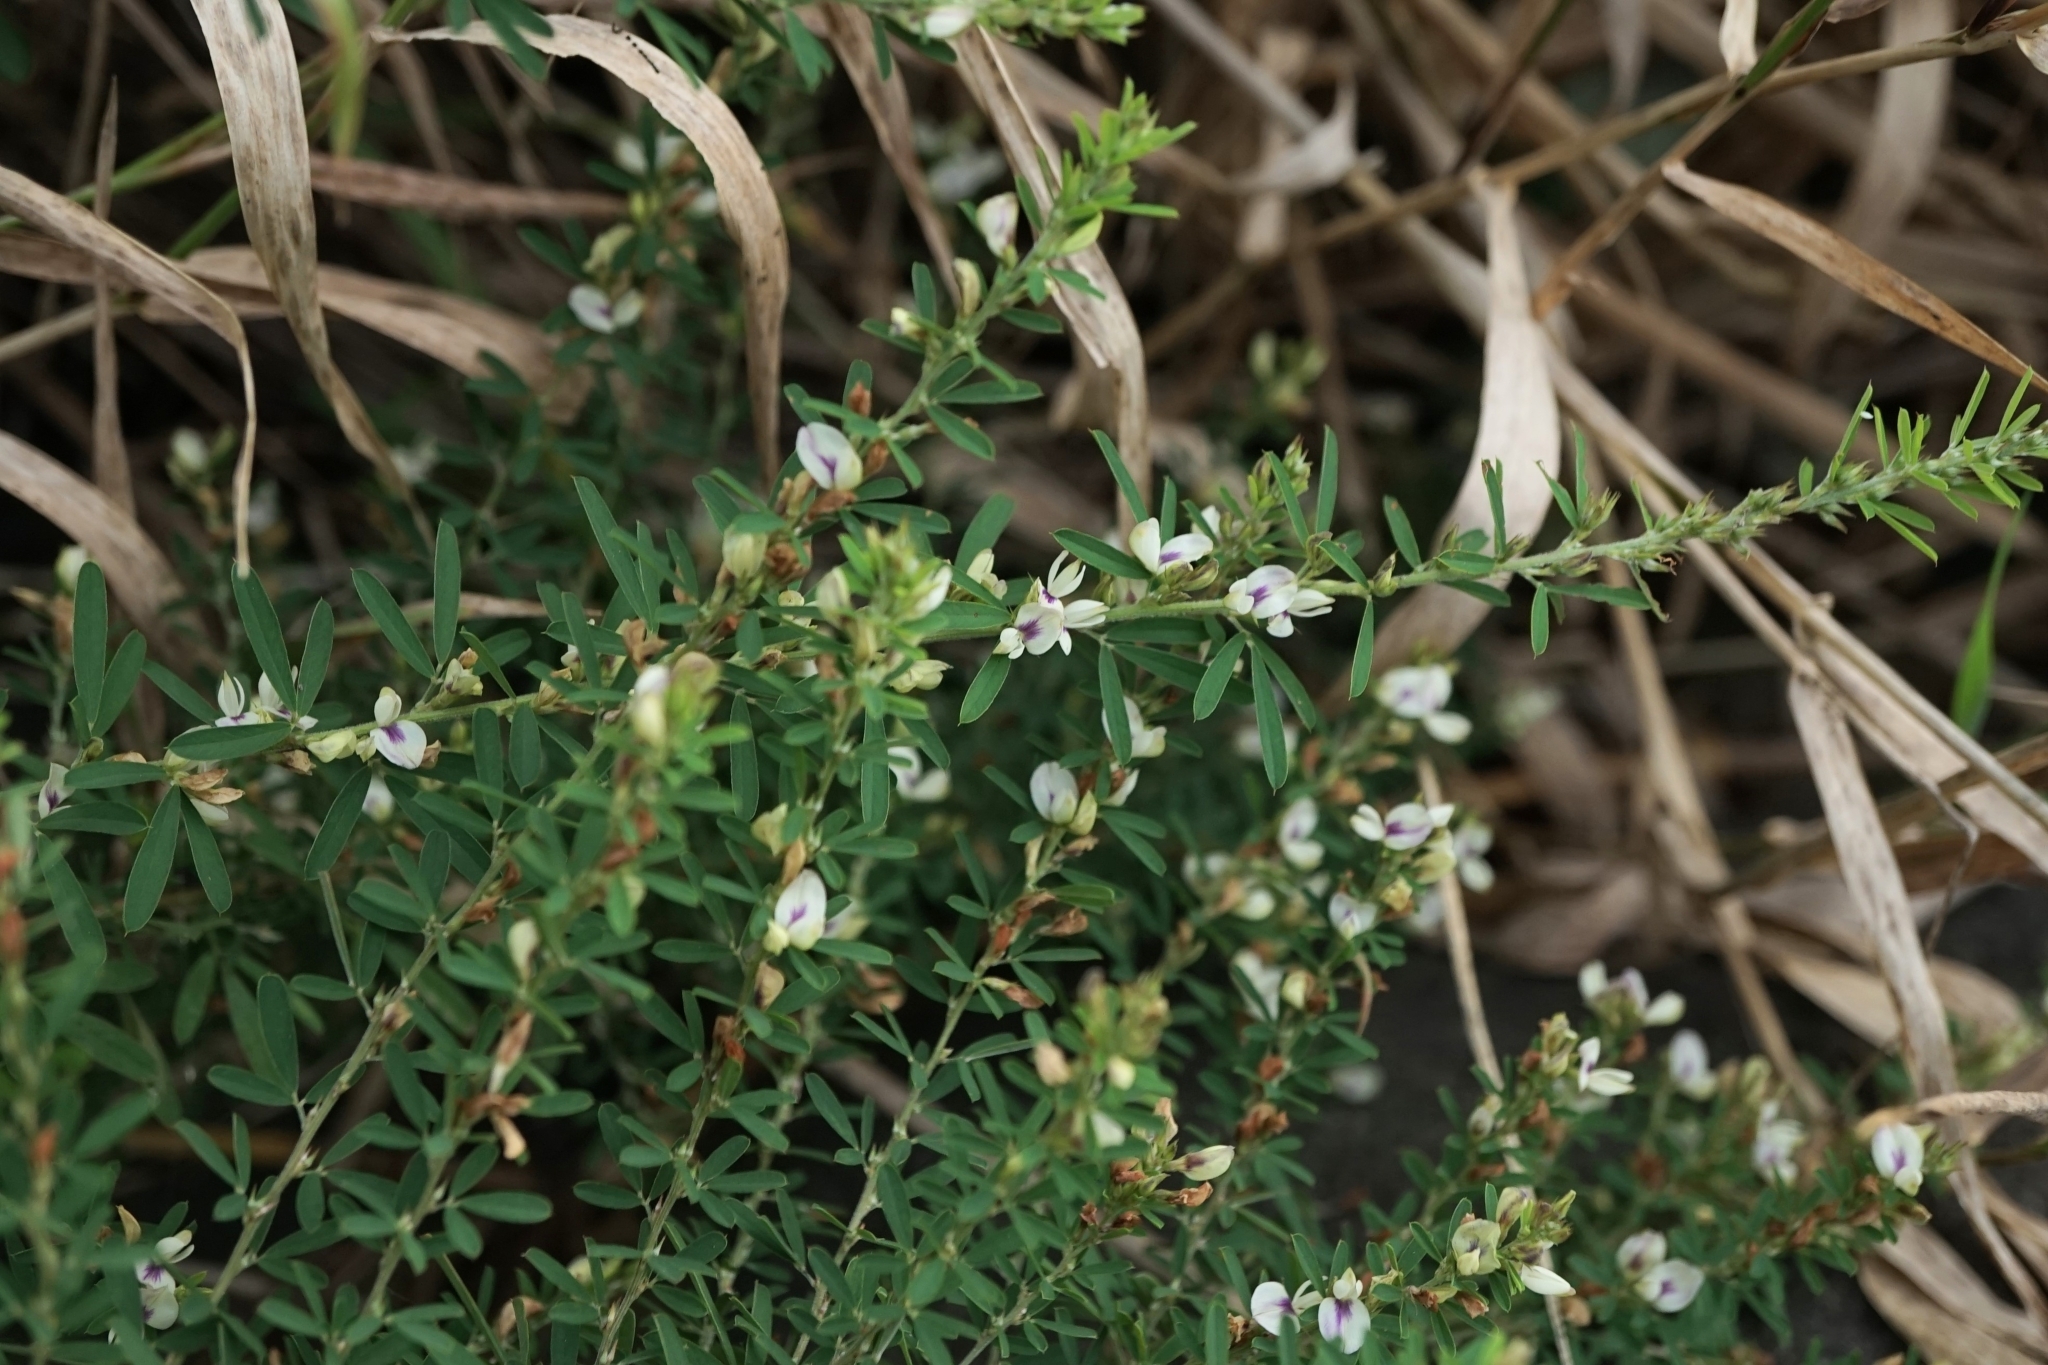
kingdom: Plantae
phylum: Tracheophyta
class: Magnoliopsida
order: Fabales
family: Fabaceae
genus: Lespedeza
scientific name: Lespedeza cuneata
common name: Chinese bush-clover
